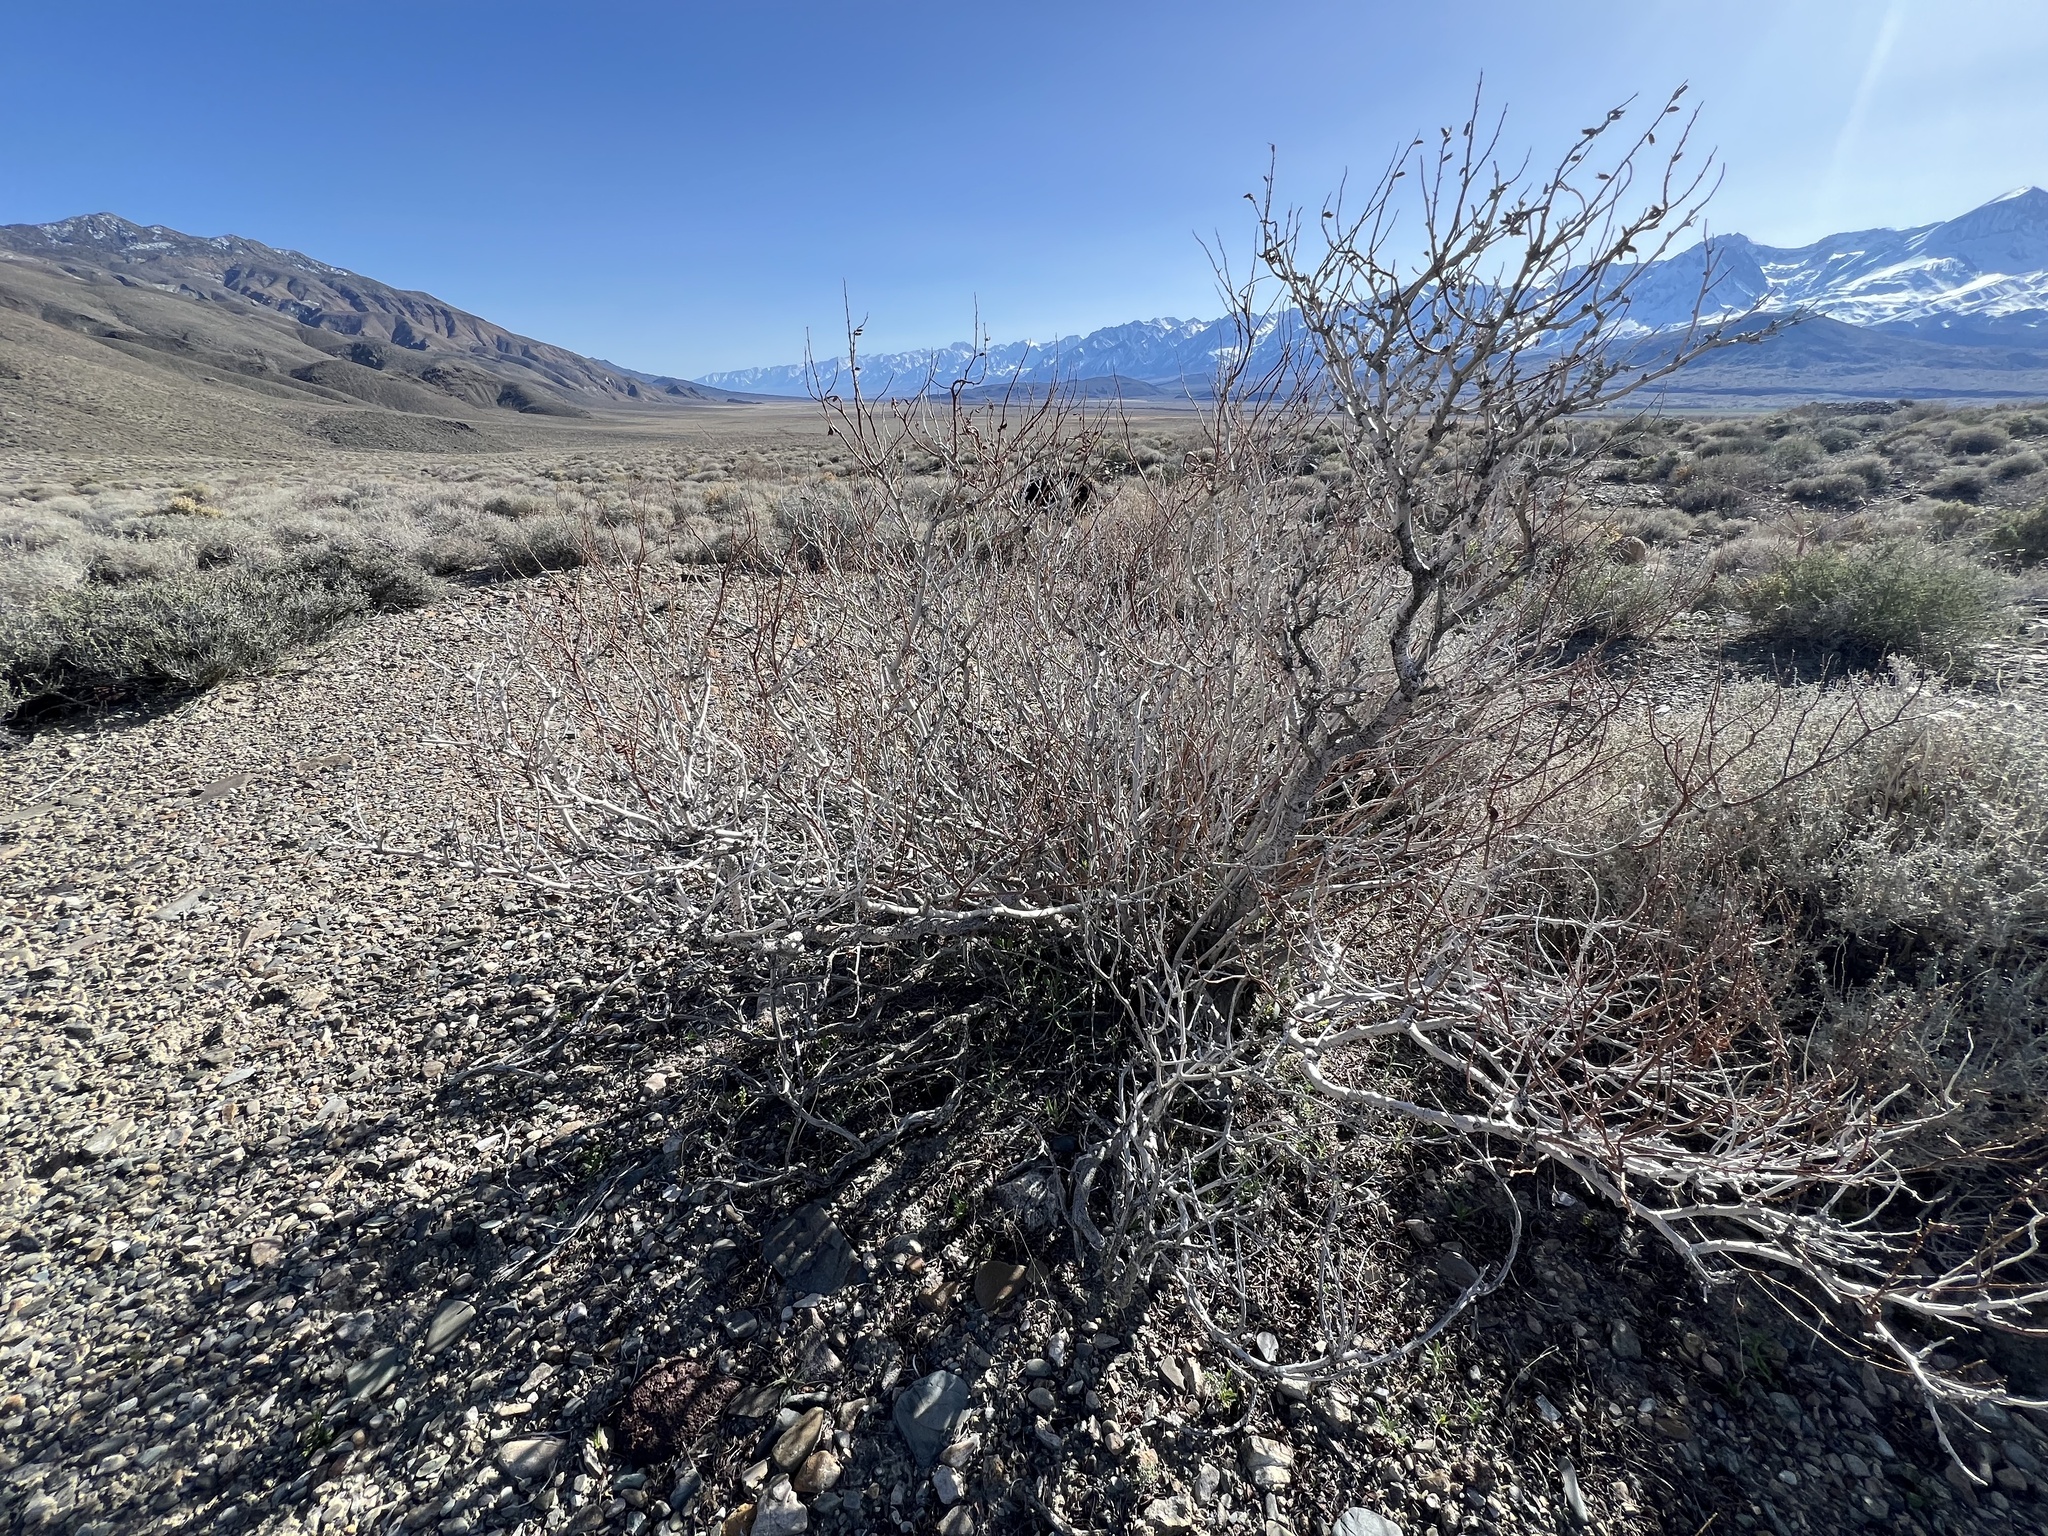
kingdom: Plantae
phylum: Tracheophyta
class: Magnoliopsida
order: Fabales
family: Fabaceae
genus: Psorothamnus
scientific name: Psorothamnus arborescens
